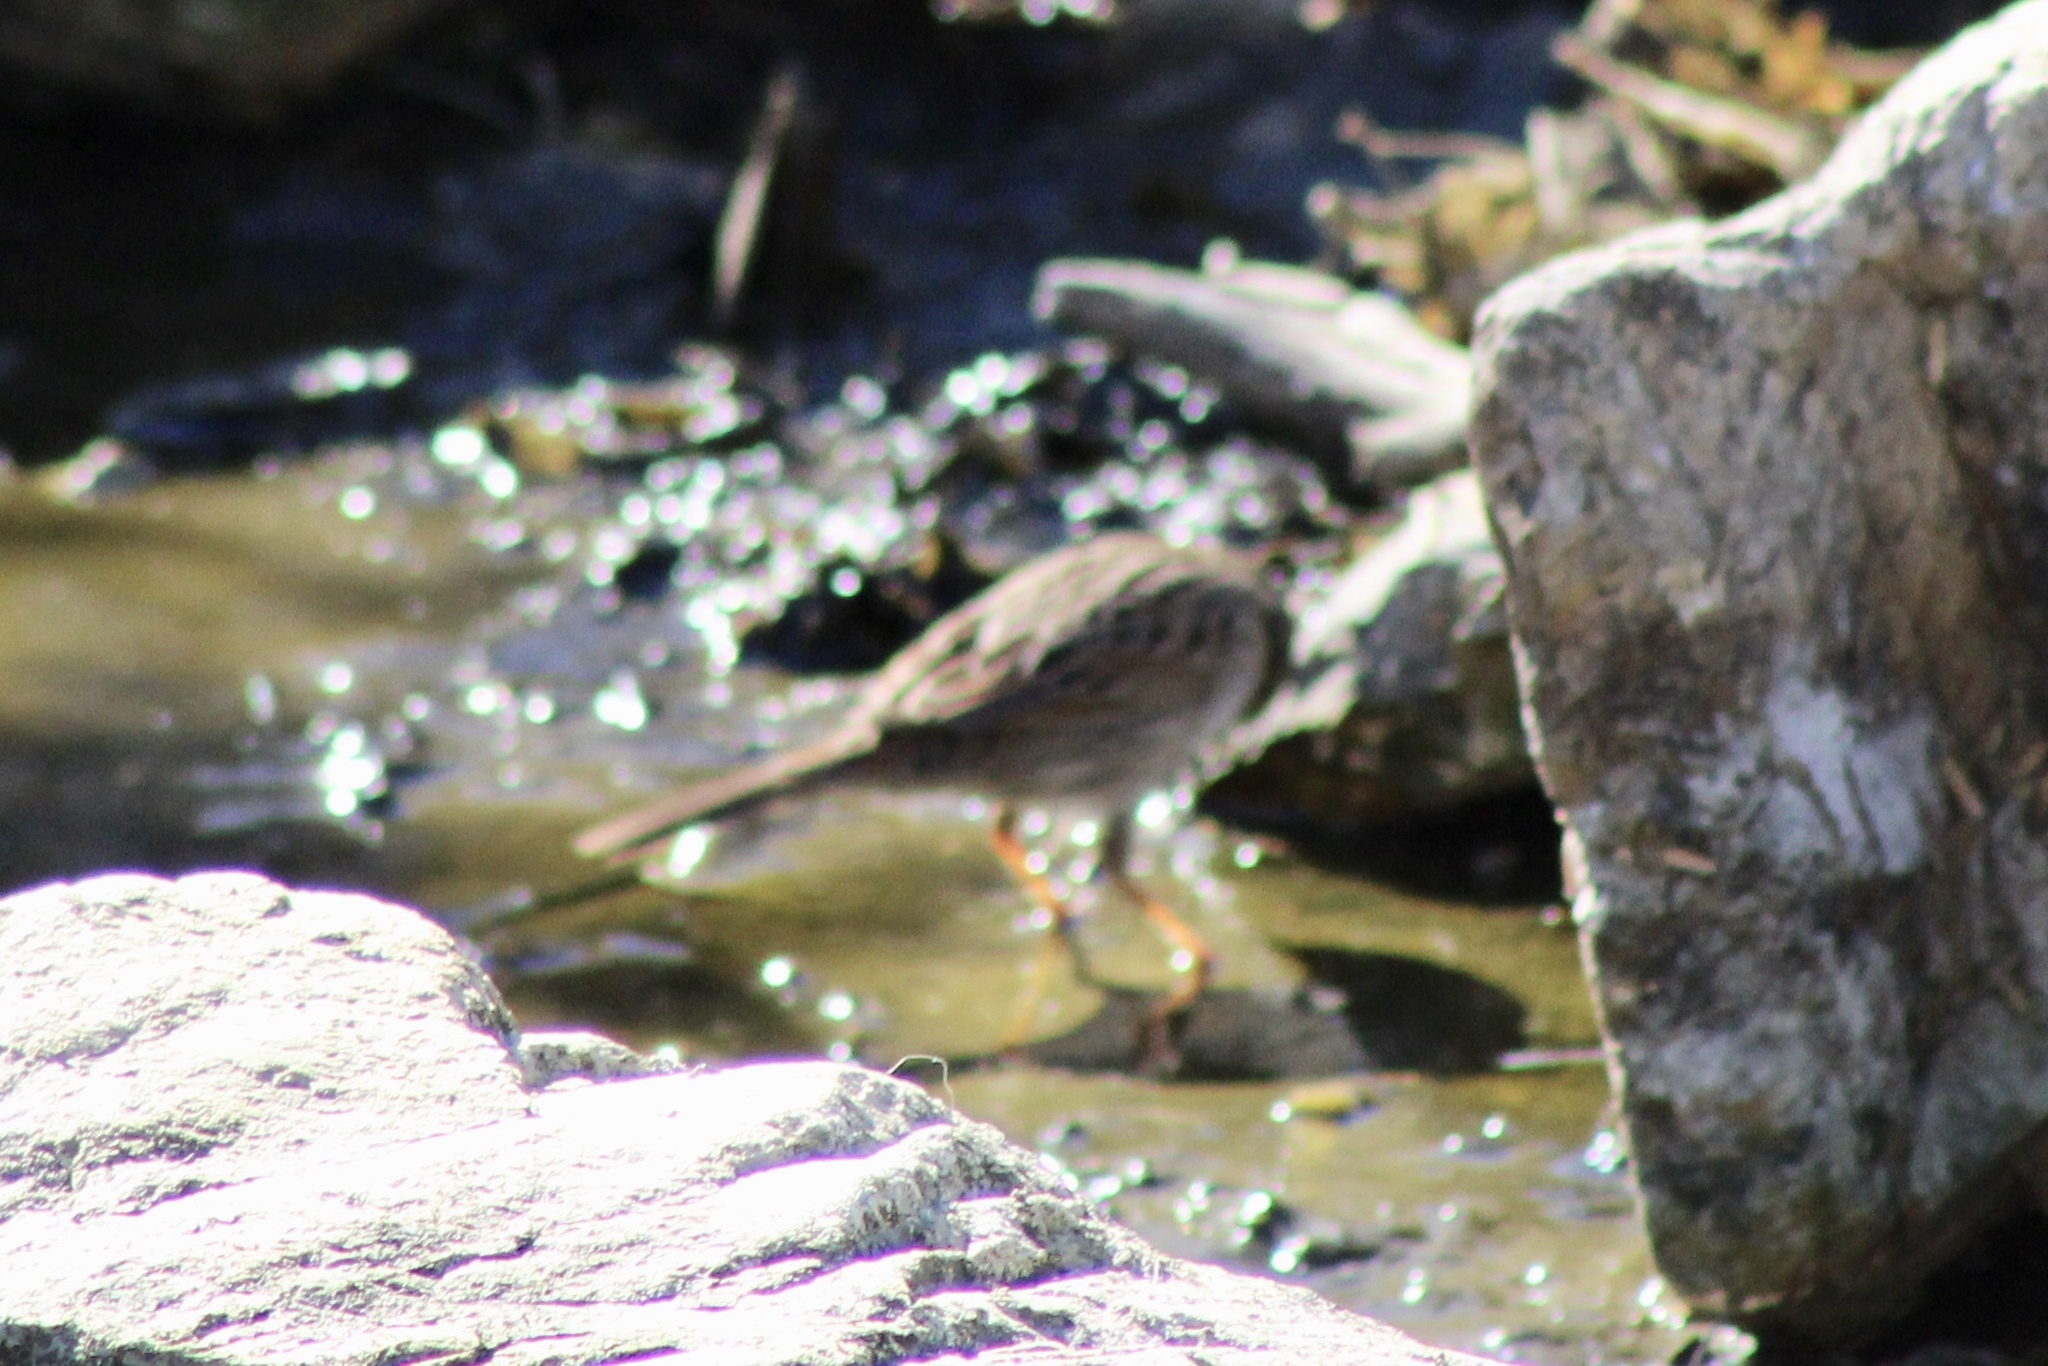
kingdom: Animalia
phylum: Chordata
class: Aves
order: Passeriformes
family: Passerellidae
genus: Melospiza
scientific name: Melospiza lincolnii
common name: Lincoln's sparrow
